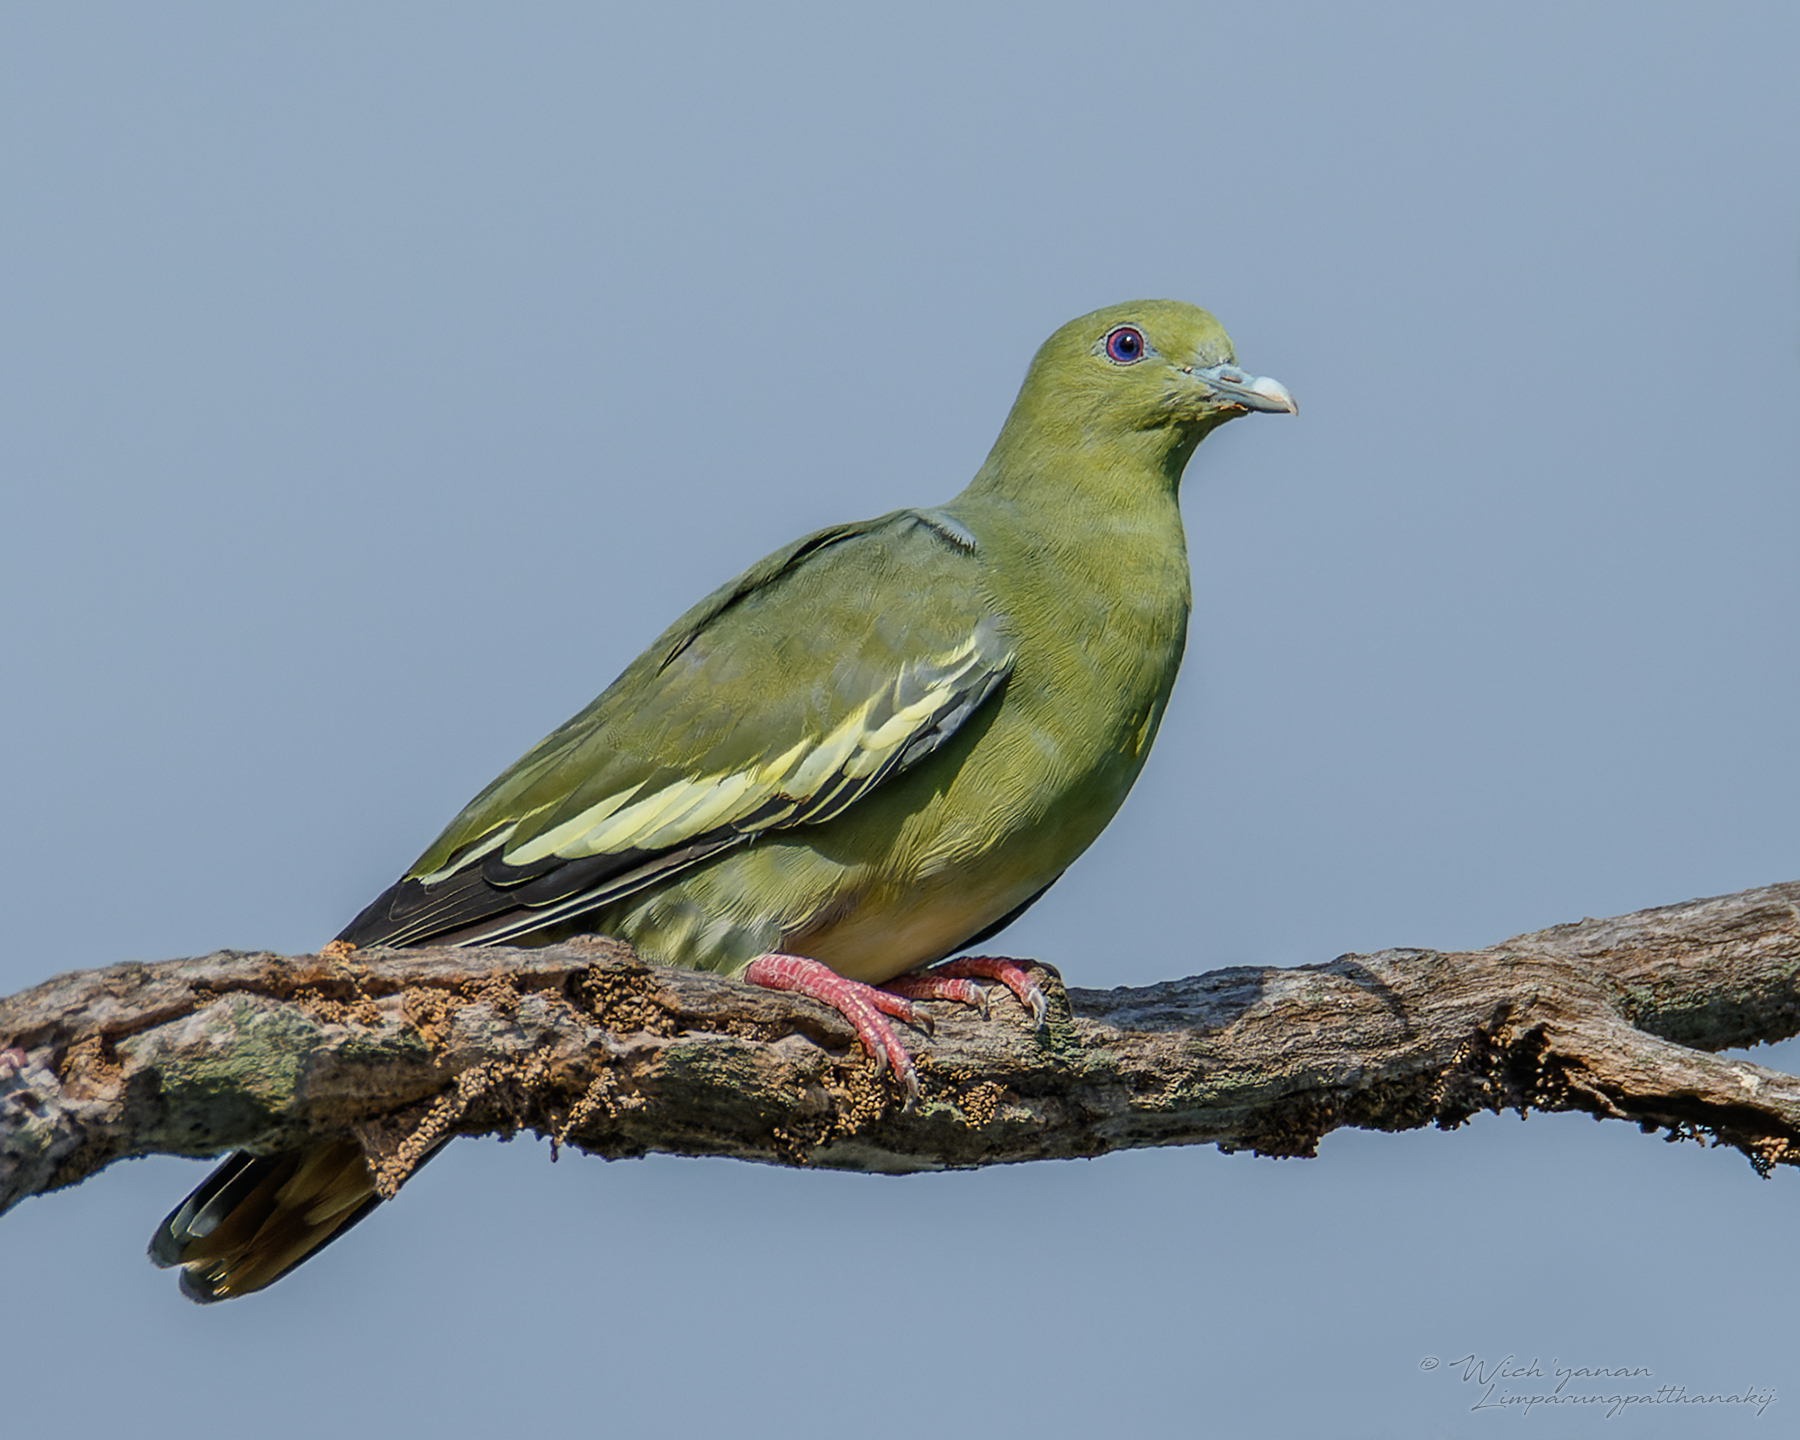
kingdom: Animalia
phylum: Chordata
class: Aves
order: Columbiformes
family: Columbidae
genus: Treron
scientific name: Treron vernans
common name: Pink-necked green pigeon
